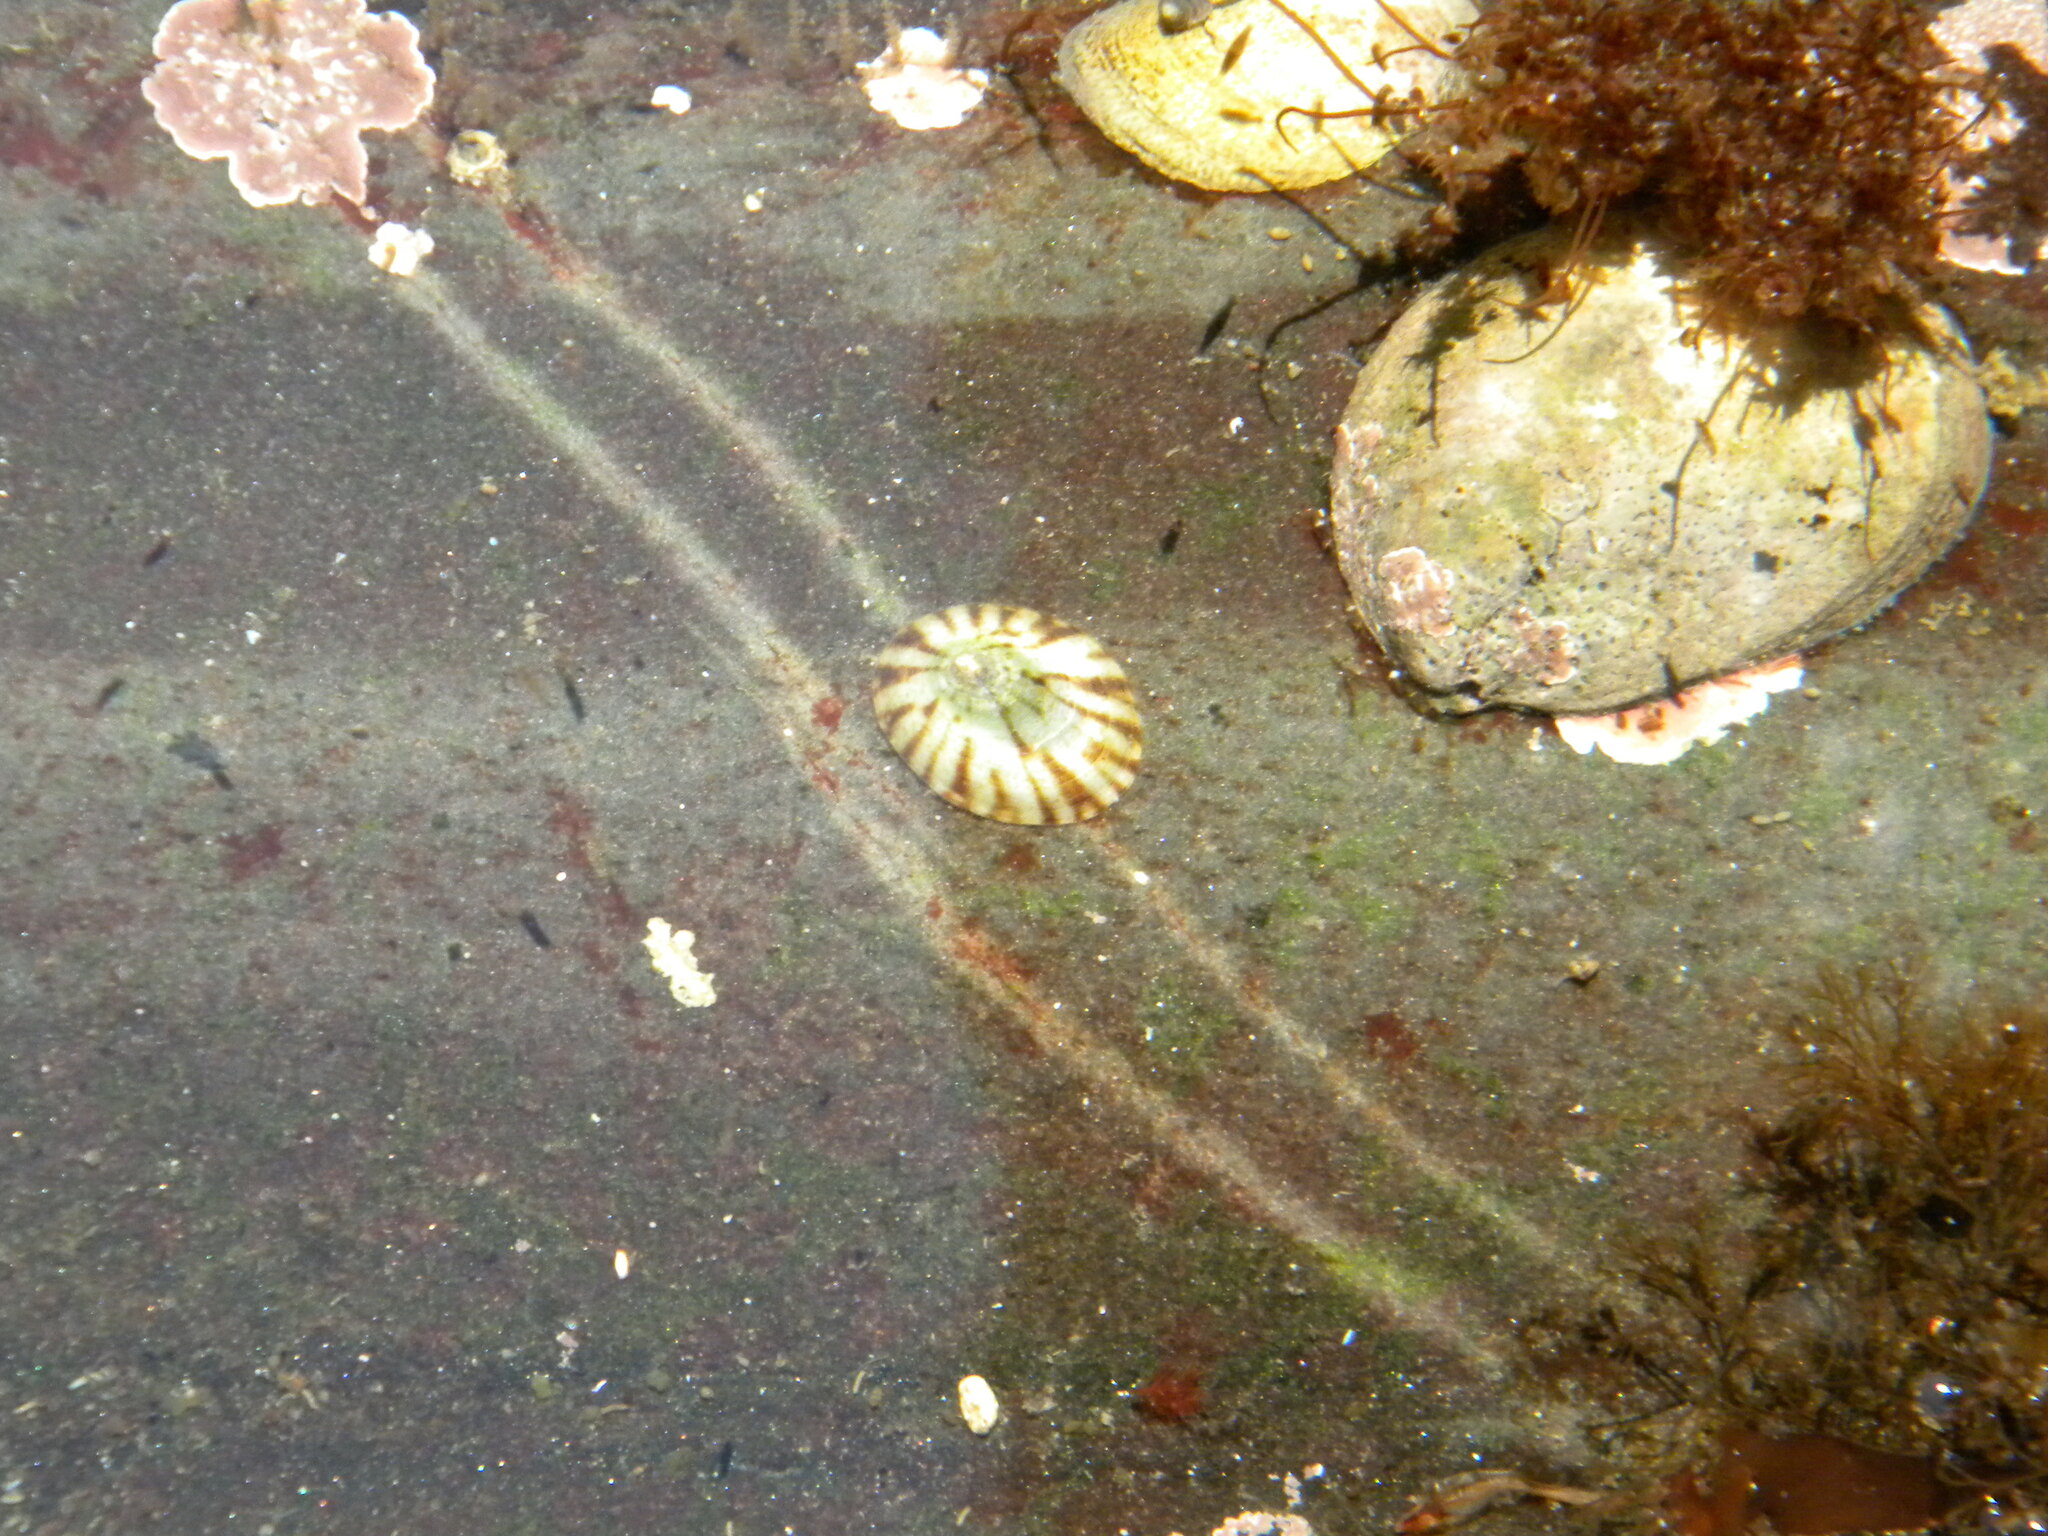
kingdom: Animalia
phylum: Mollusca
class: Gastropoda
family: Lottiidae
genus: Testudinalia
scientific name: Testudinalia testudinalis
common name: Common tortoiseshell limpet
